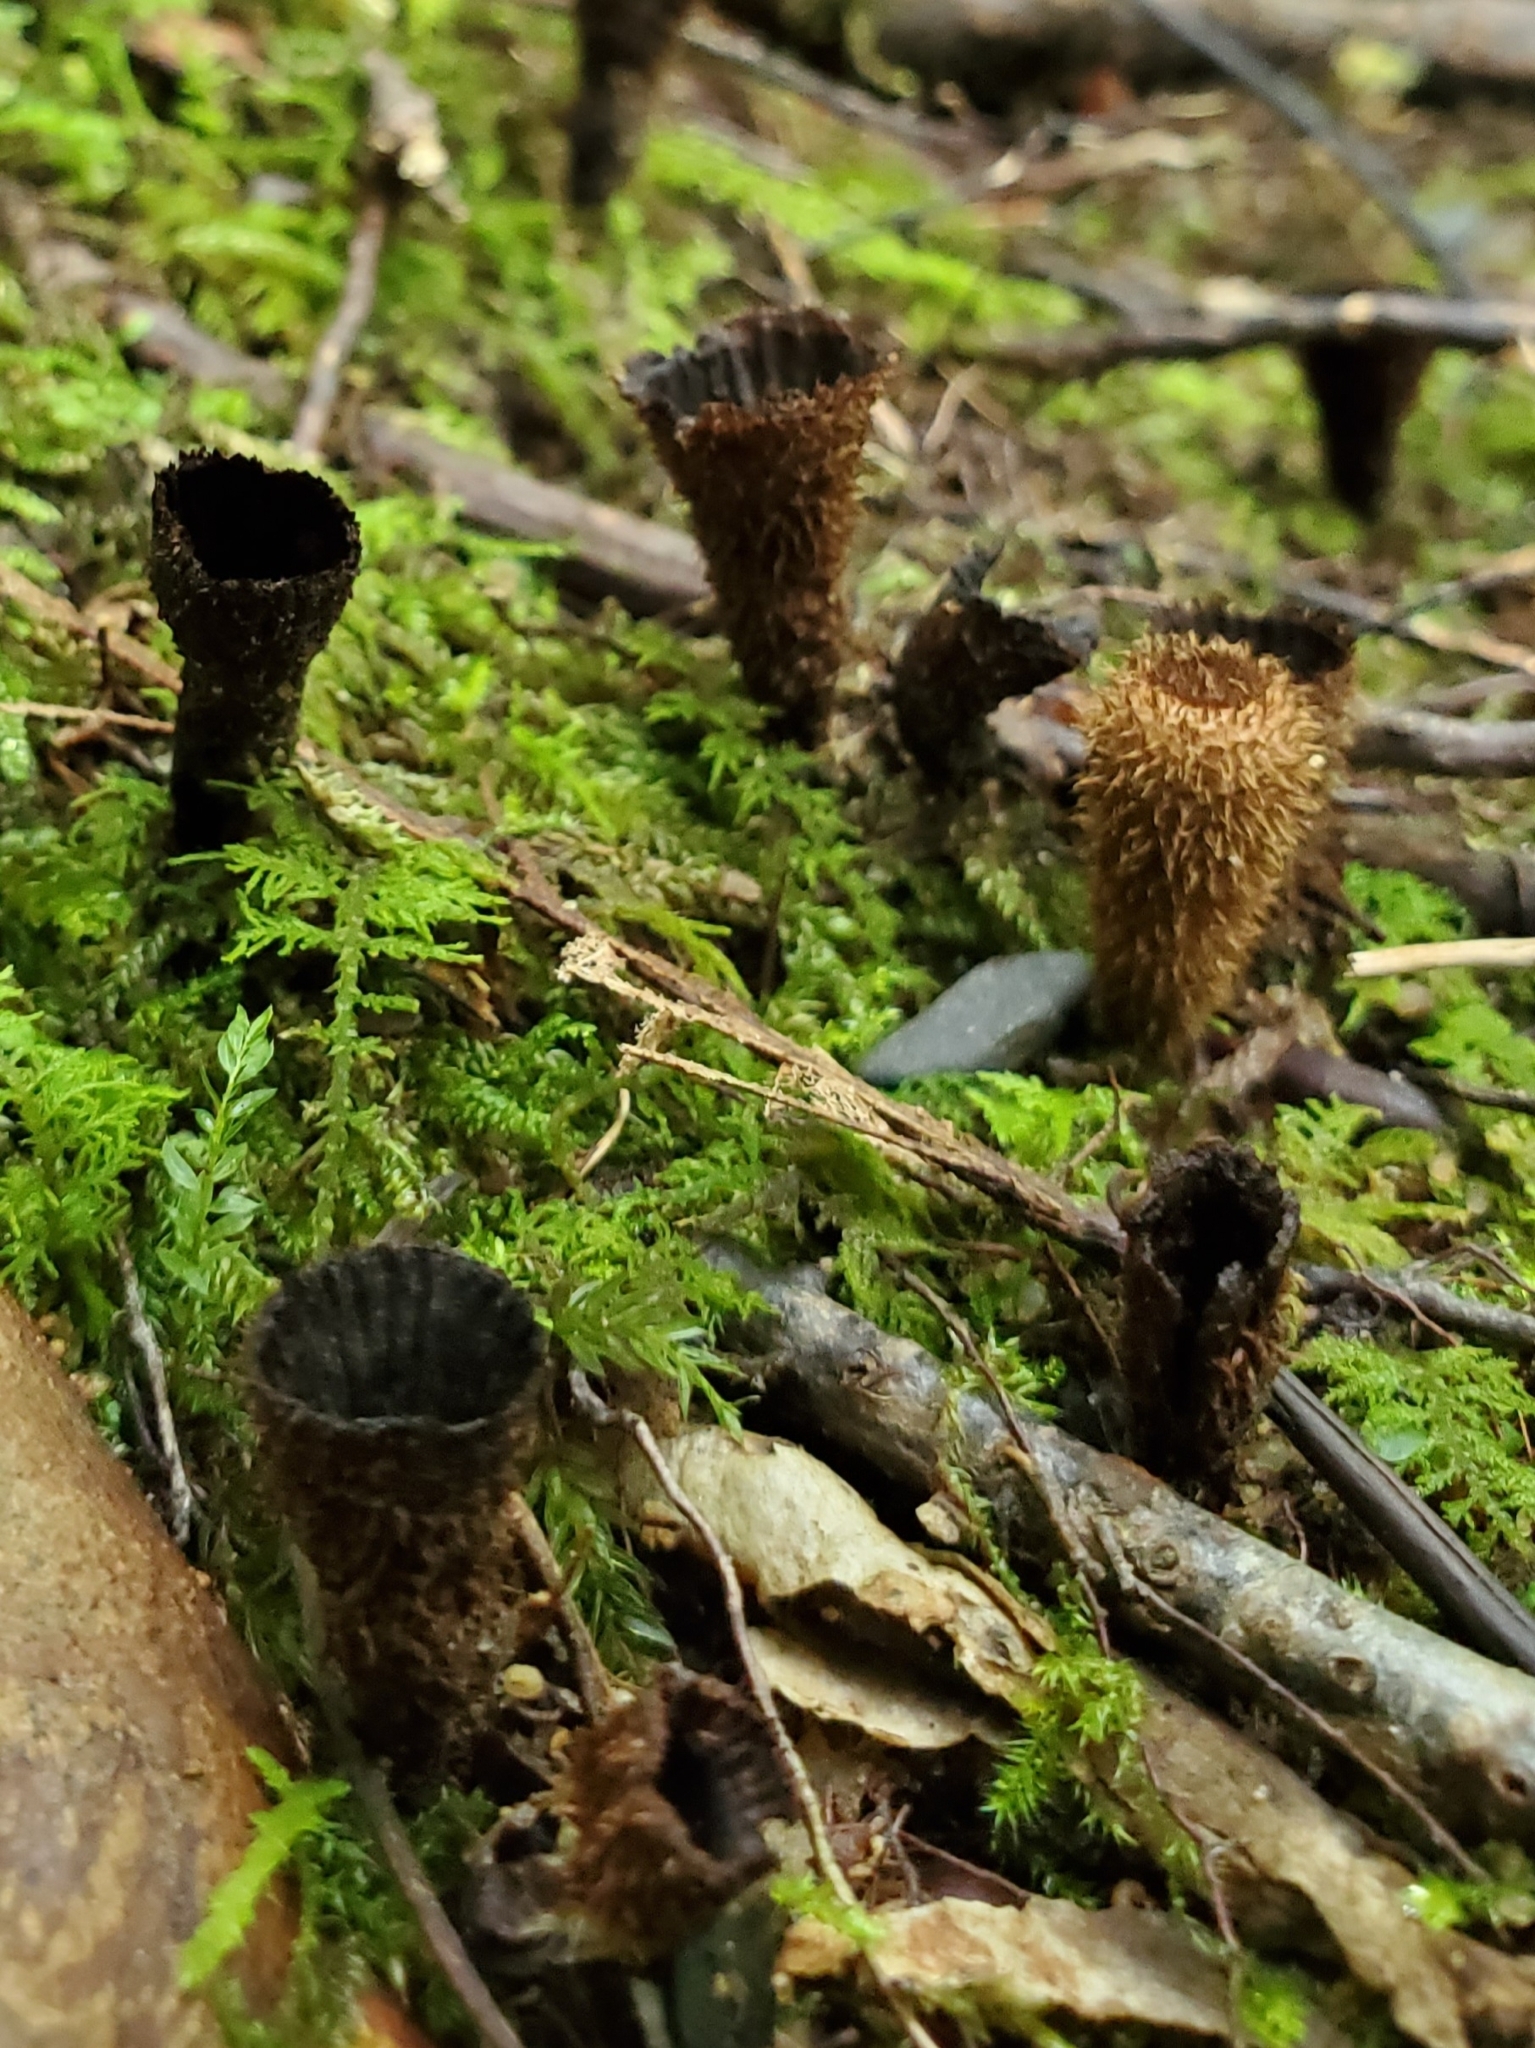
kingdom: Fungi
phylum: Basidiomycota
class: Agaricomycetes
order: Agaricales
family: Agaricaceae
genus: Cyathus
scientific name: Cyathus striatus
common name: Fluted bird's nest
